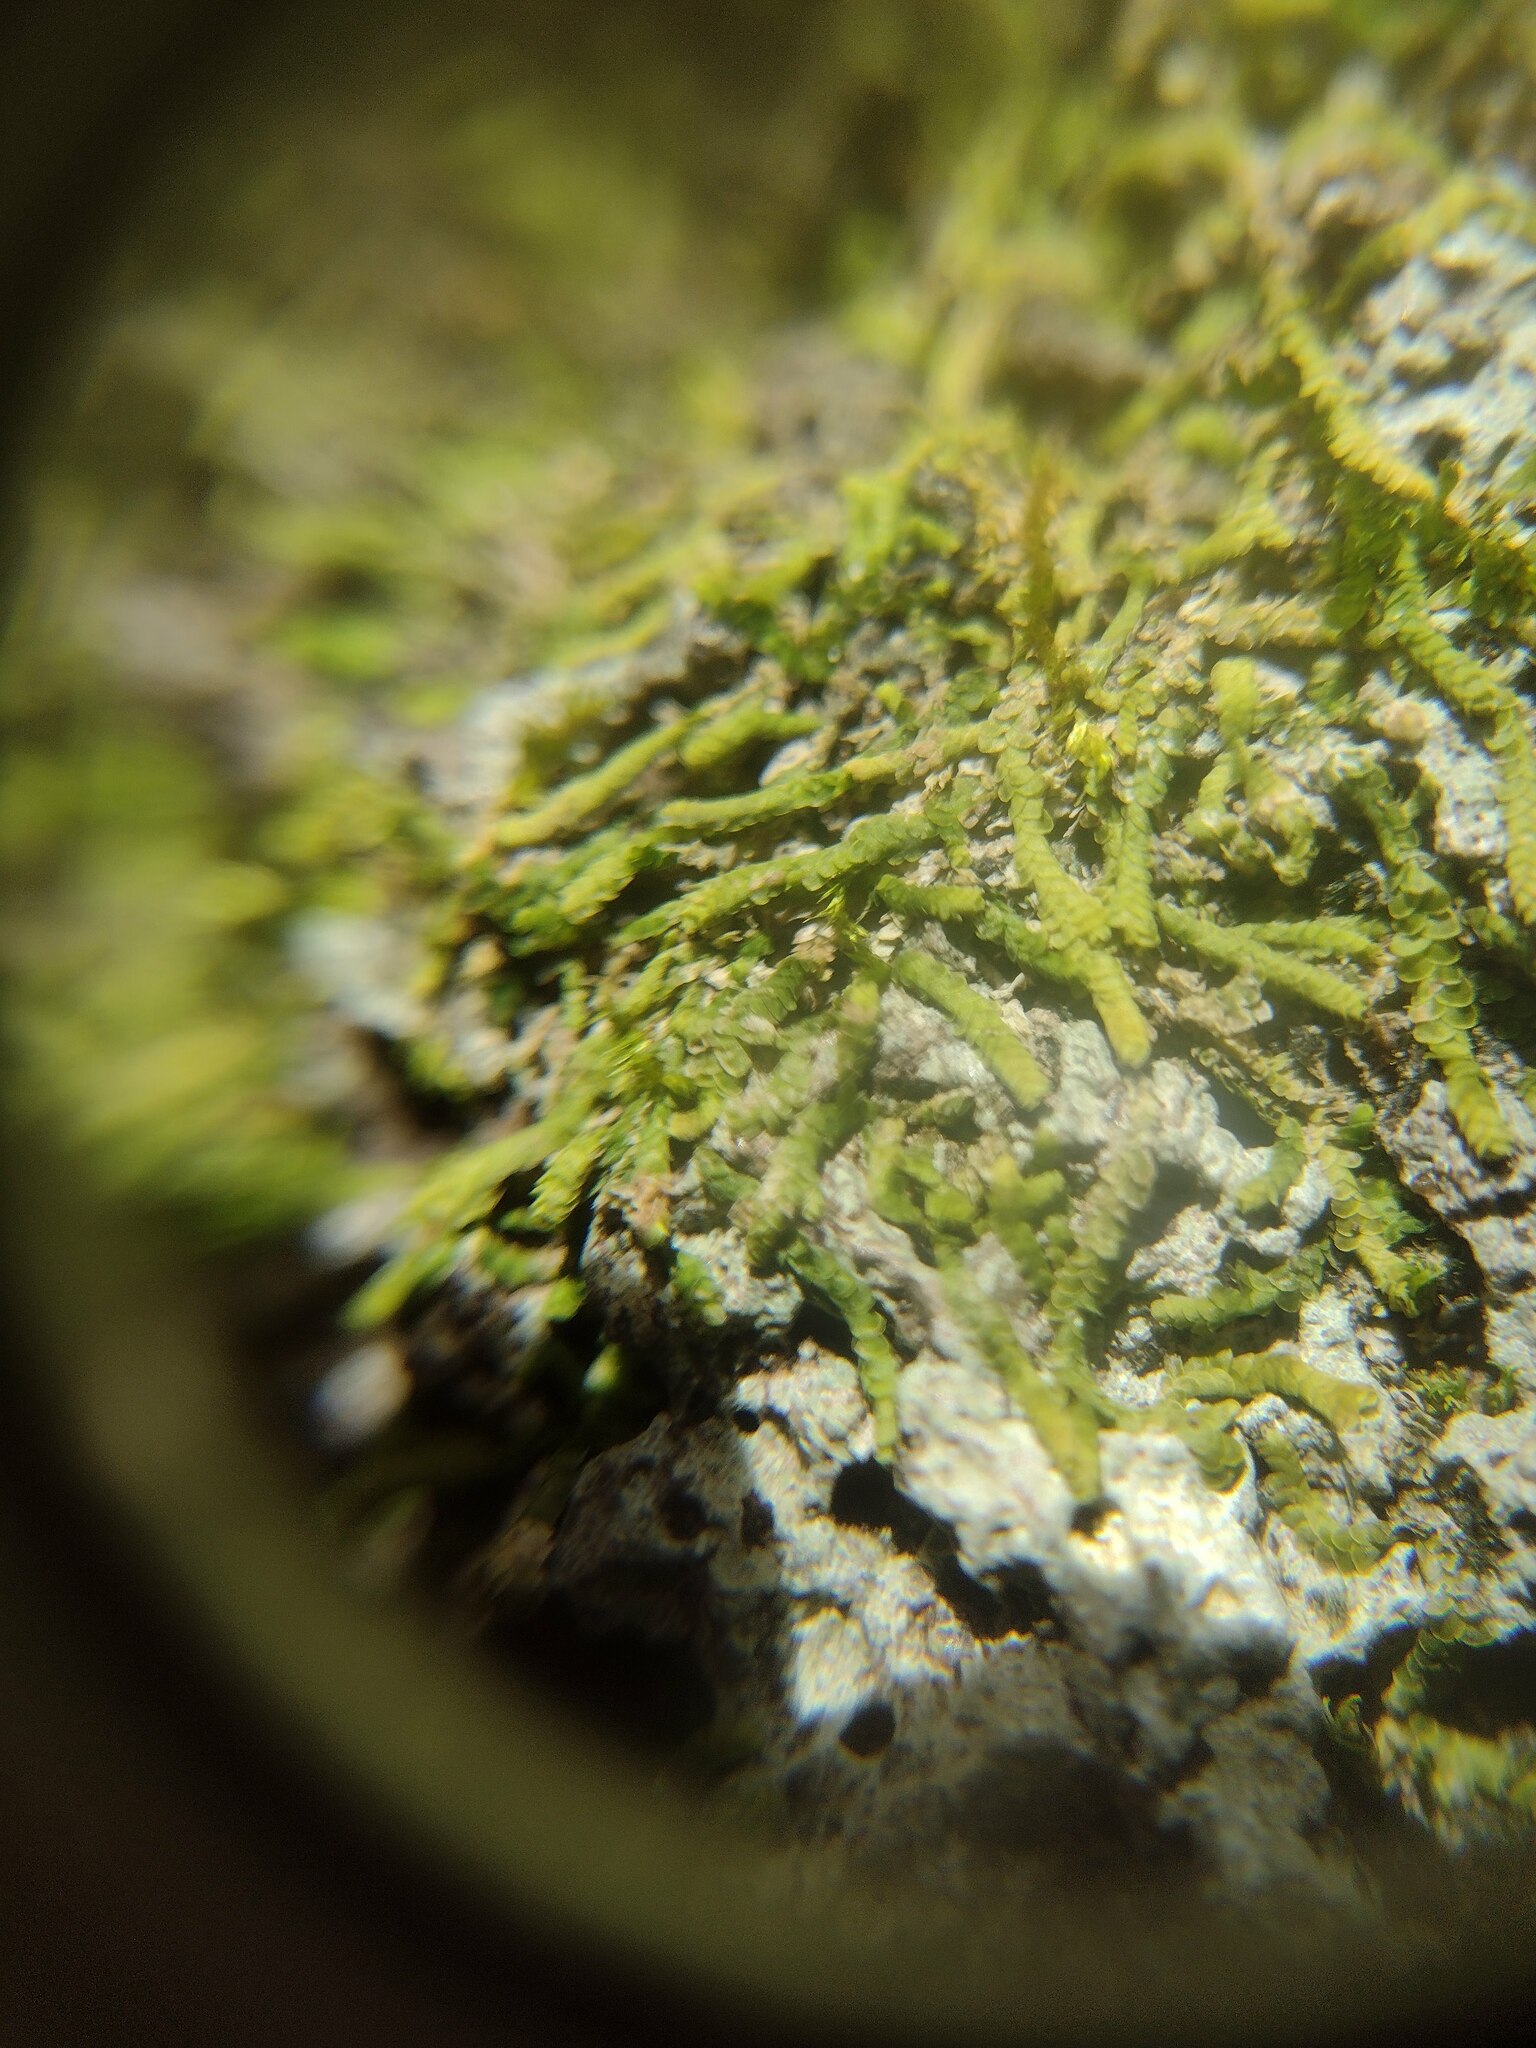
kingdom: Plantae
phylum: Marchantiophyta
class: Jungermanniopsida
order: Porellales
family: Lejeuneaceae
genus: Acrolejeunea
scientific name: Acrolejeunea sandvicensis
